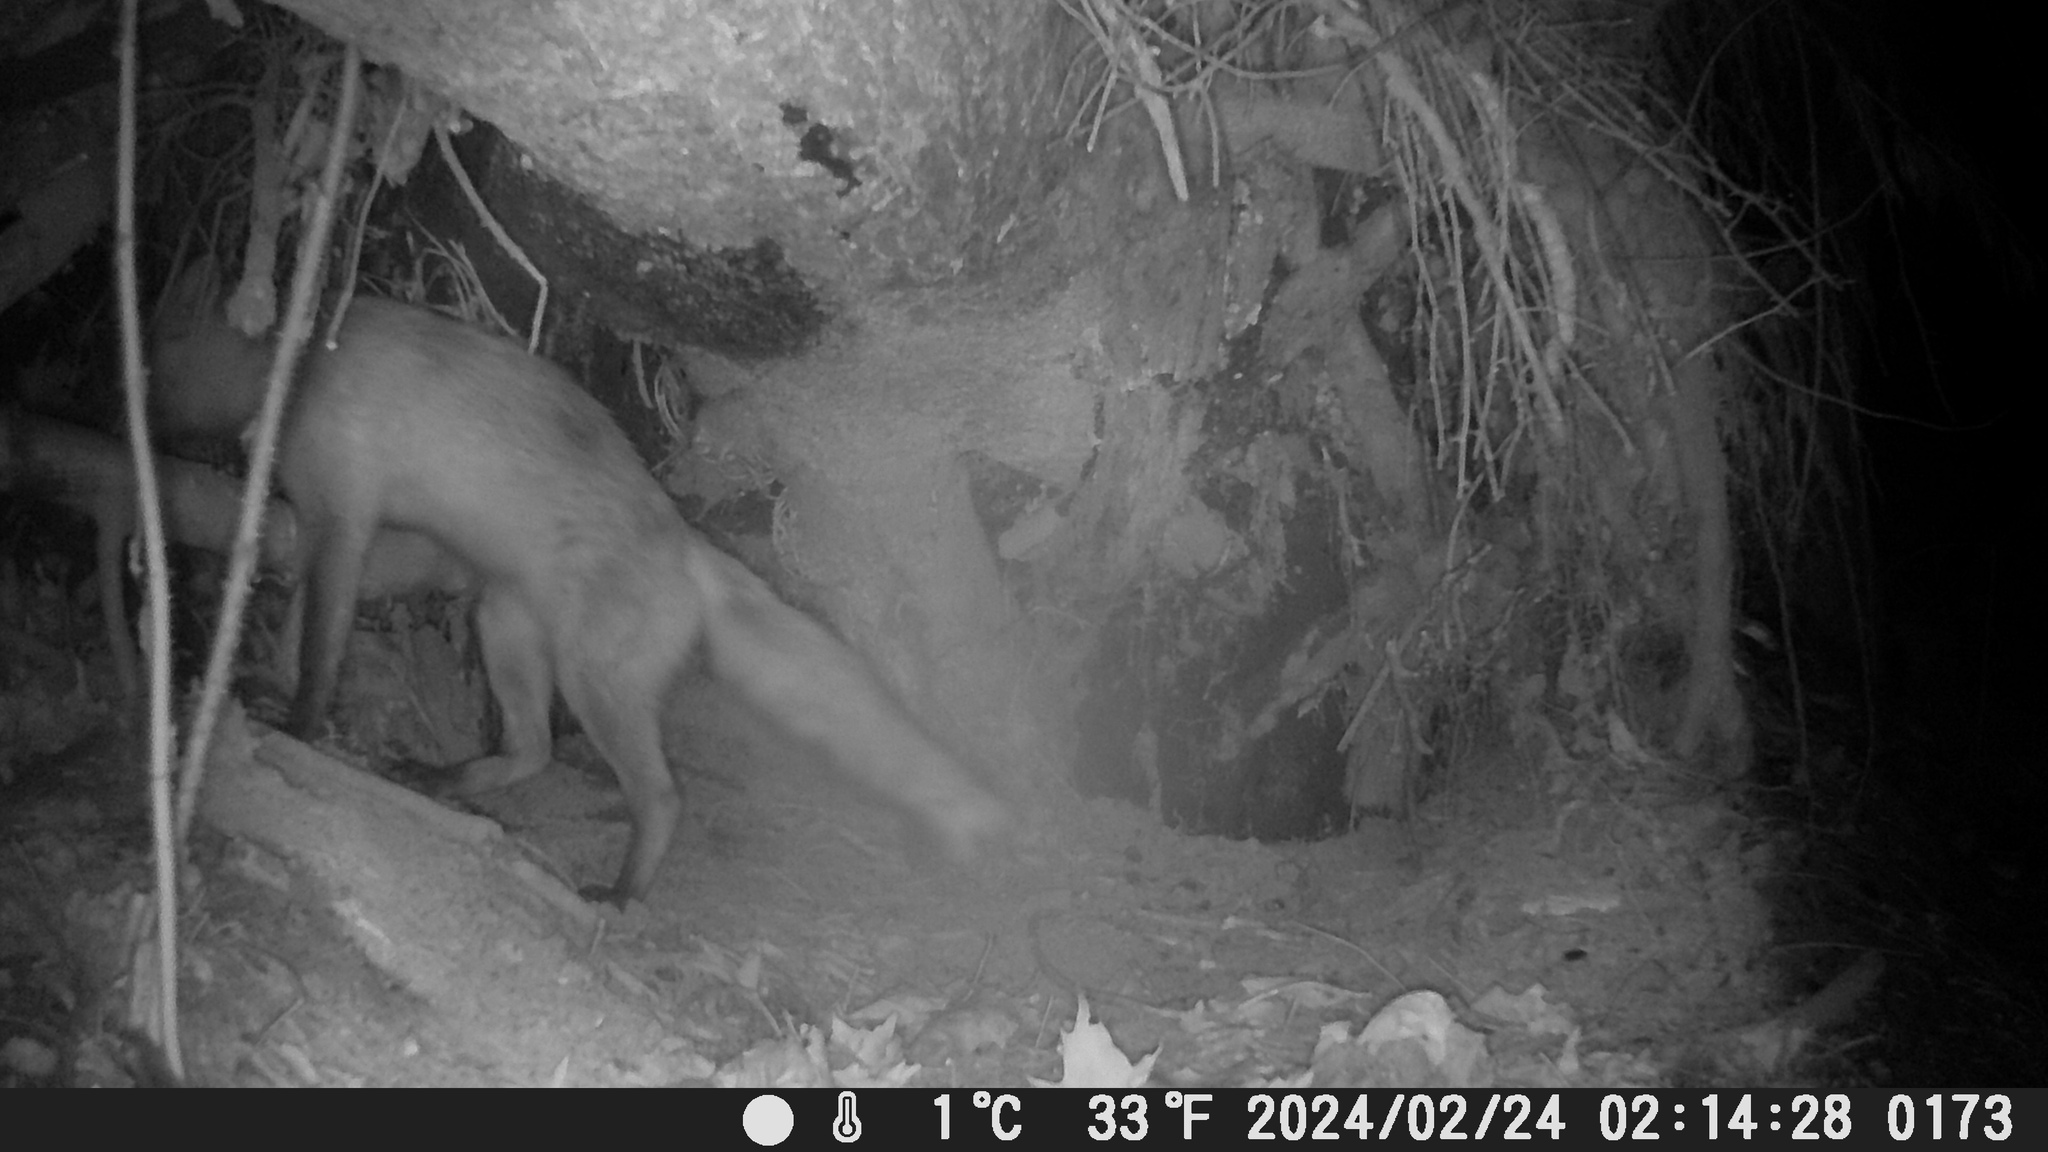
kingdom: Animalia
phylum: Chordata
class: Mammalia
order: Carnivora
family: Canidae
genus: Vulpes
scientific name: Vulpes vulpes
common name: Red fox
